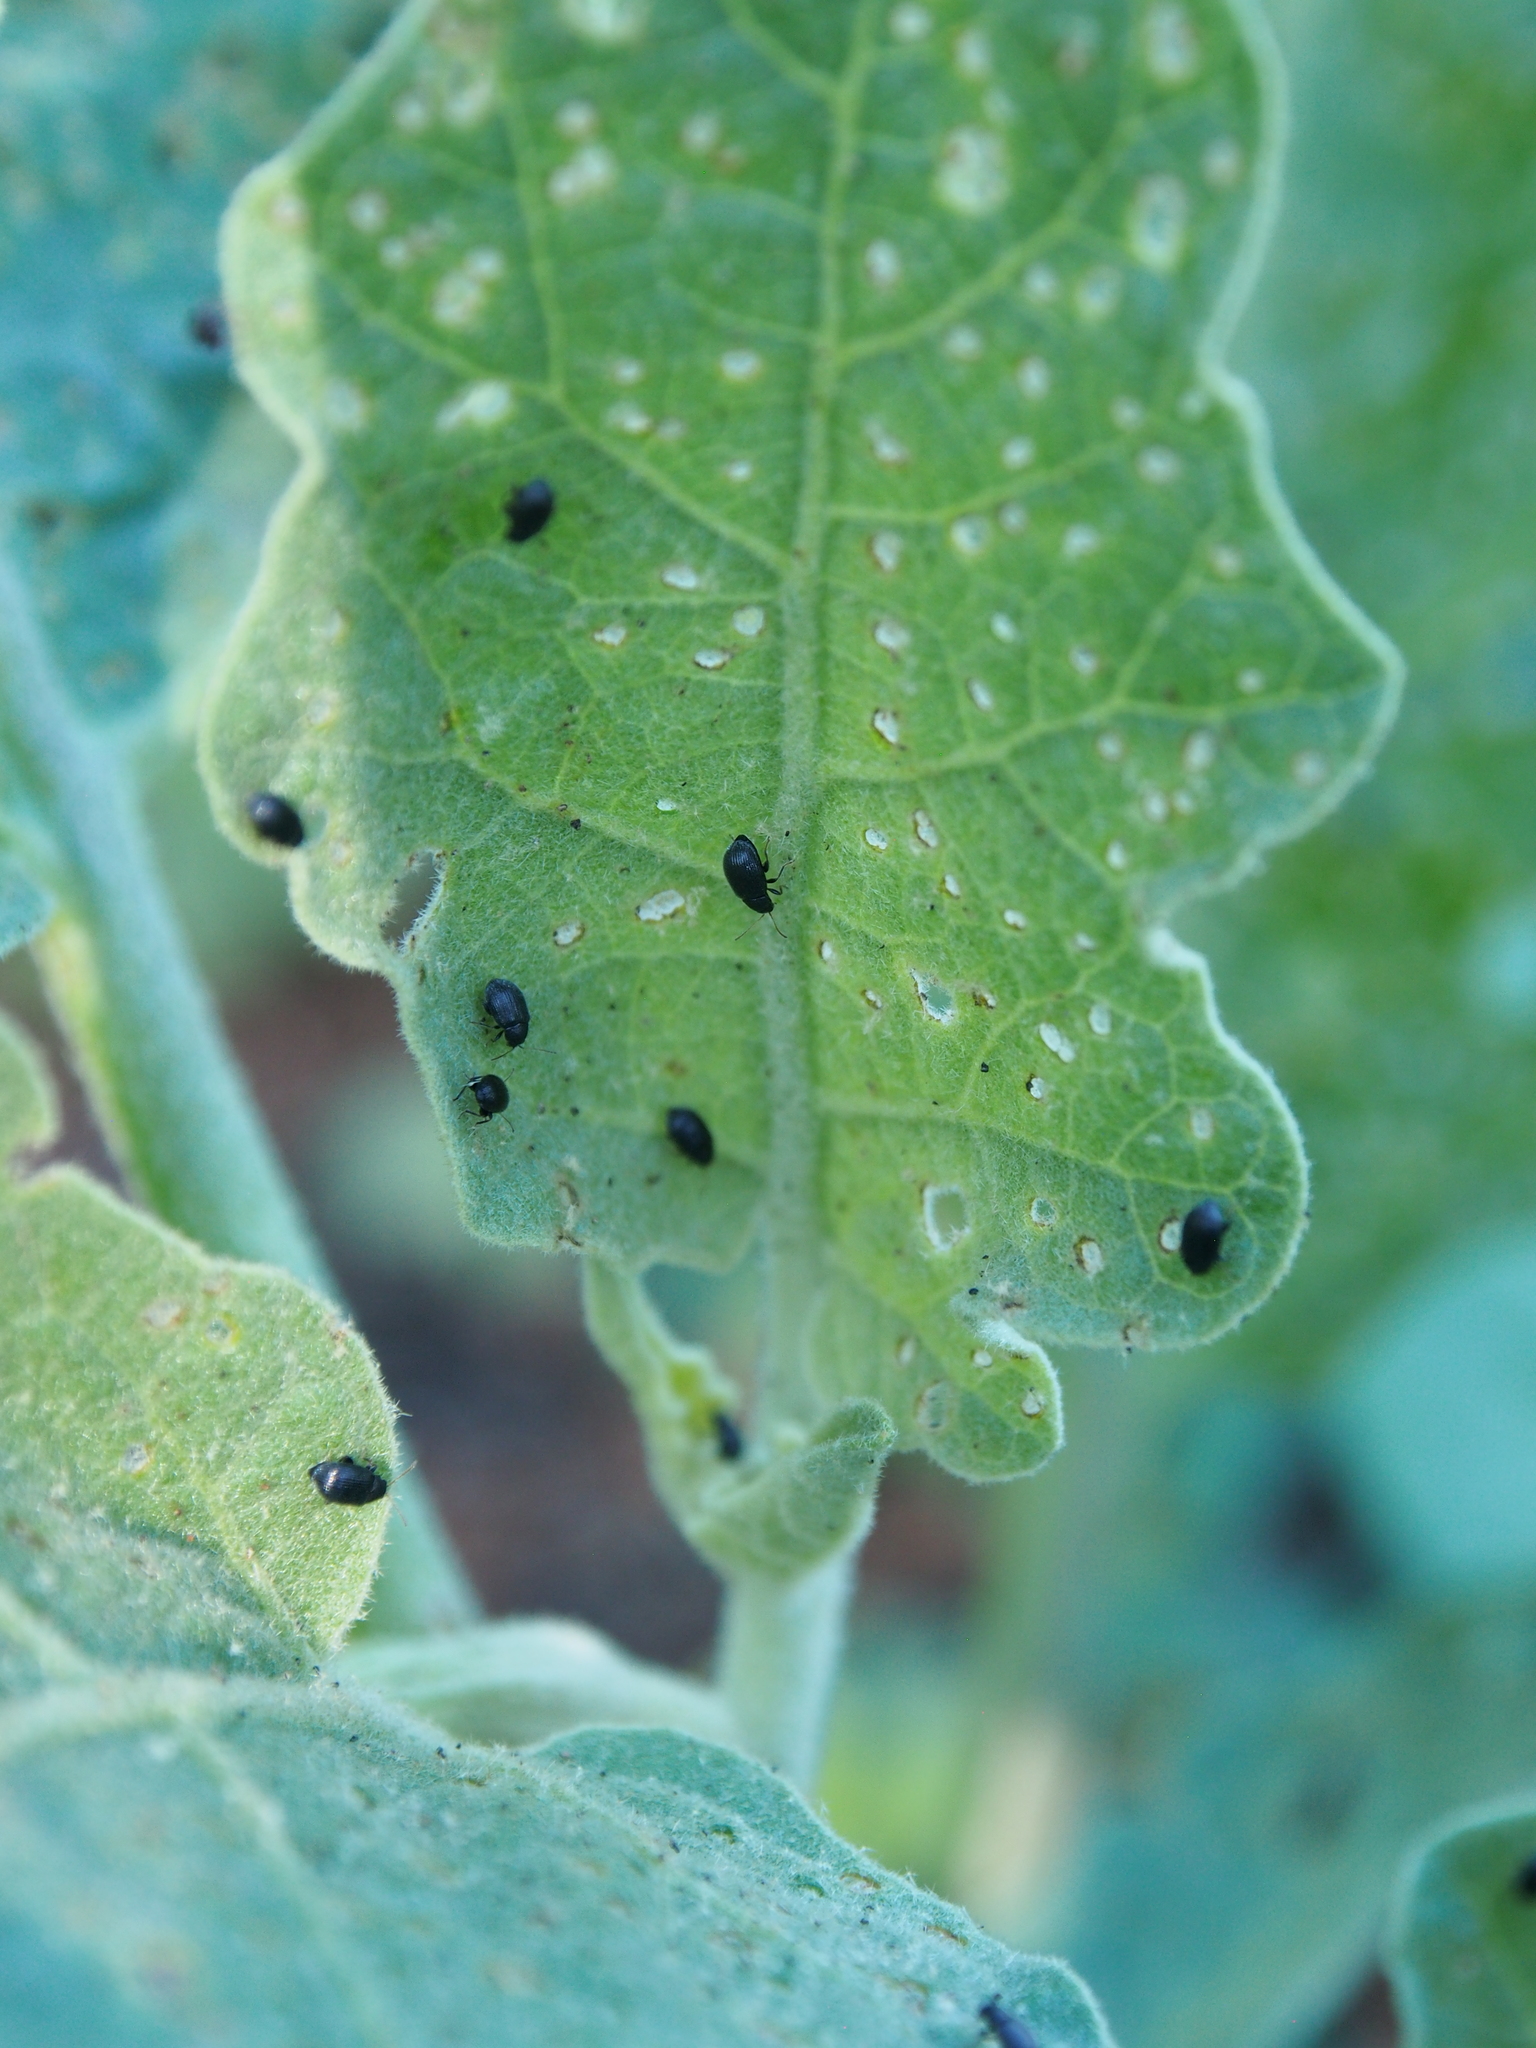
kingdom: Animalia
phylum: Arthropoda
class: Insecta
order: Coleoptera
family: Chrysomelidae
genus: Epitrix
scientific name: Epitrix fuscula
